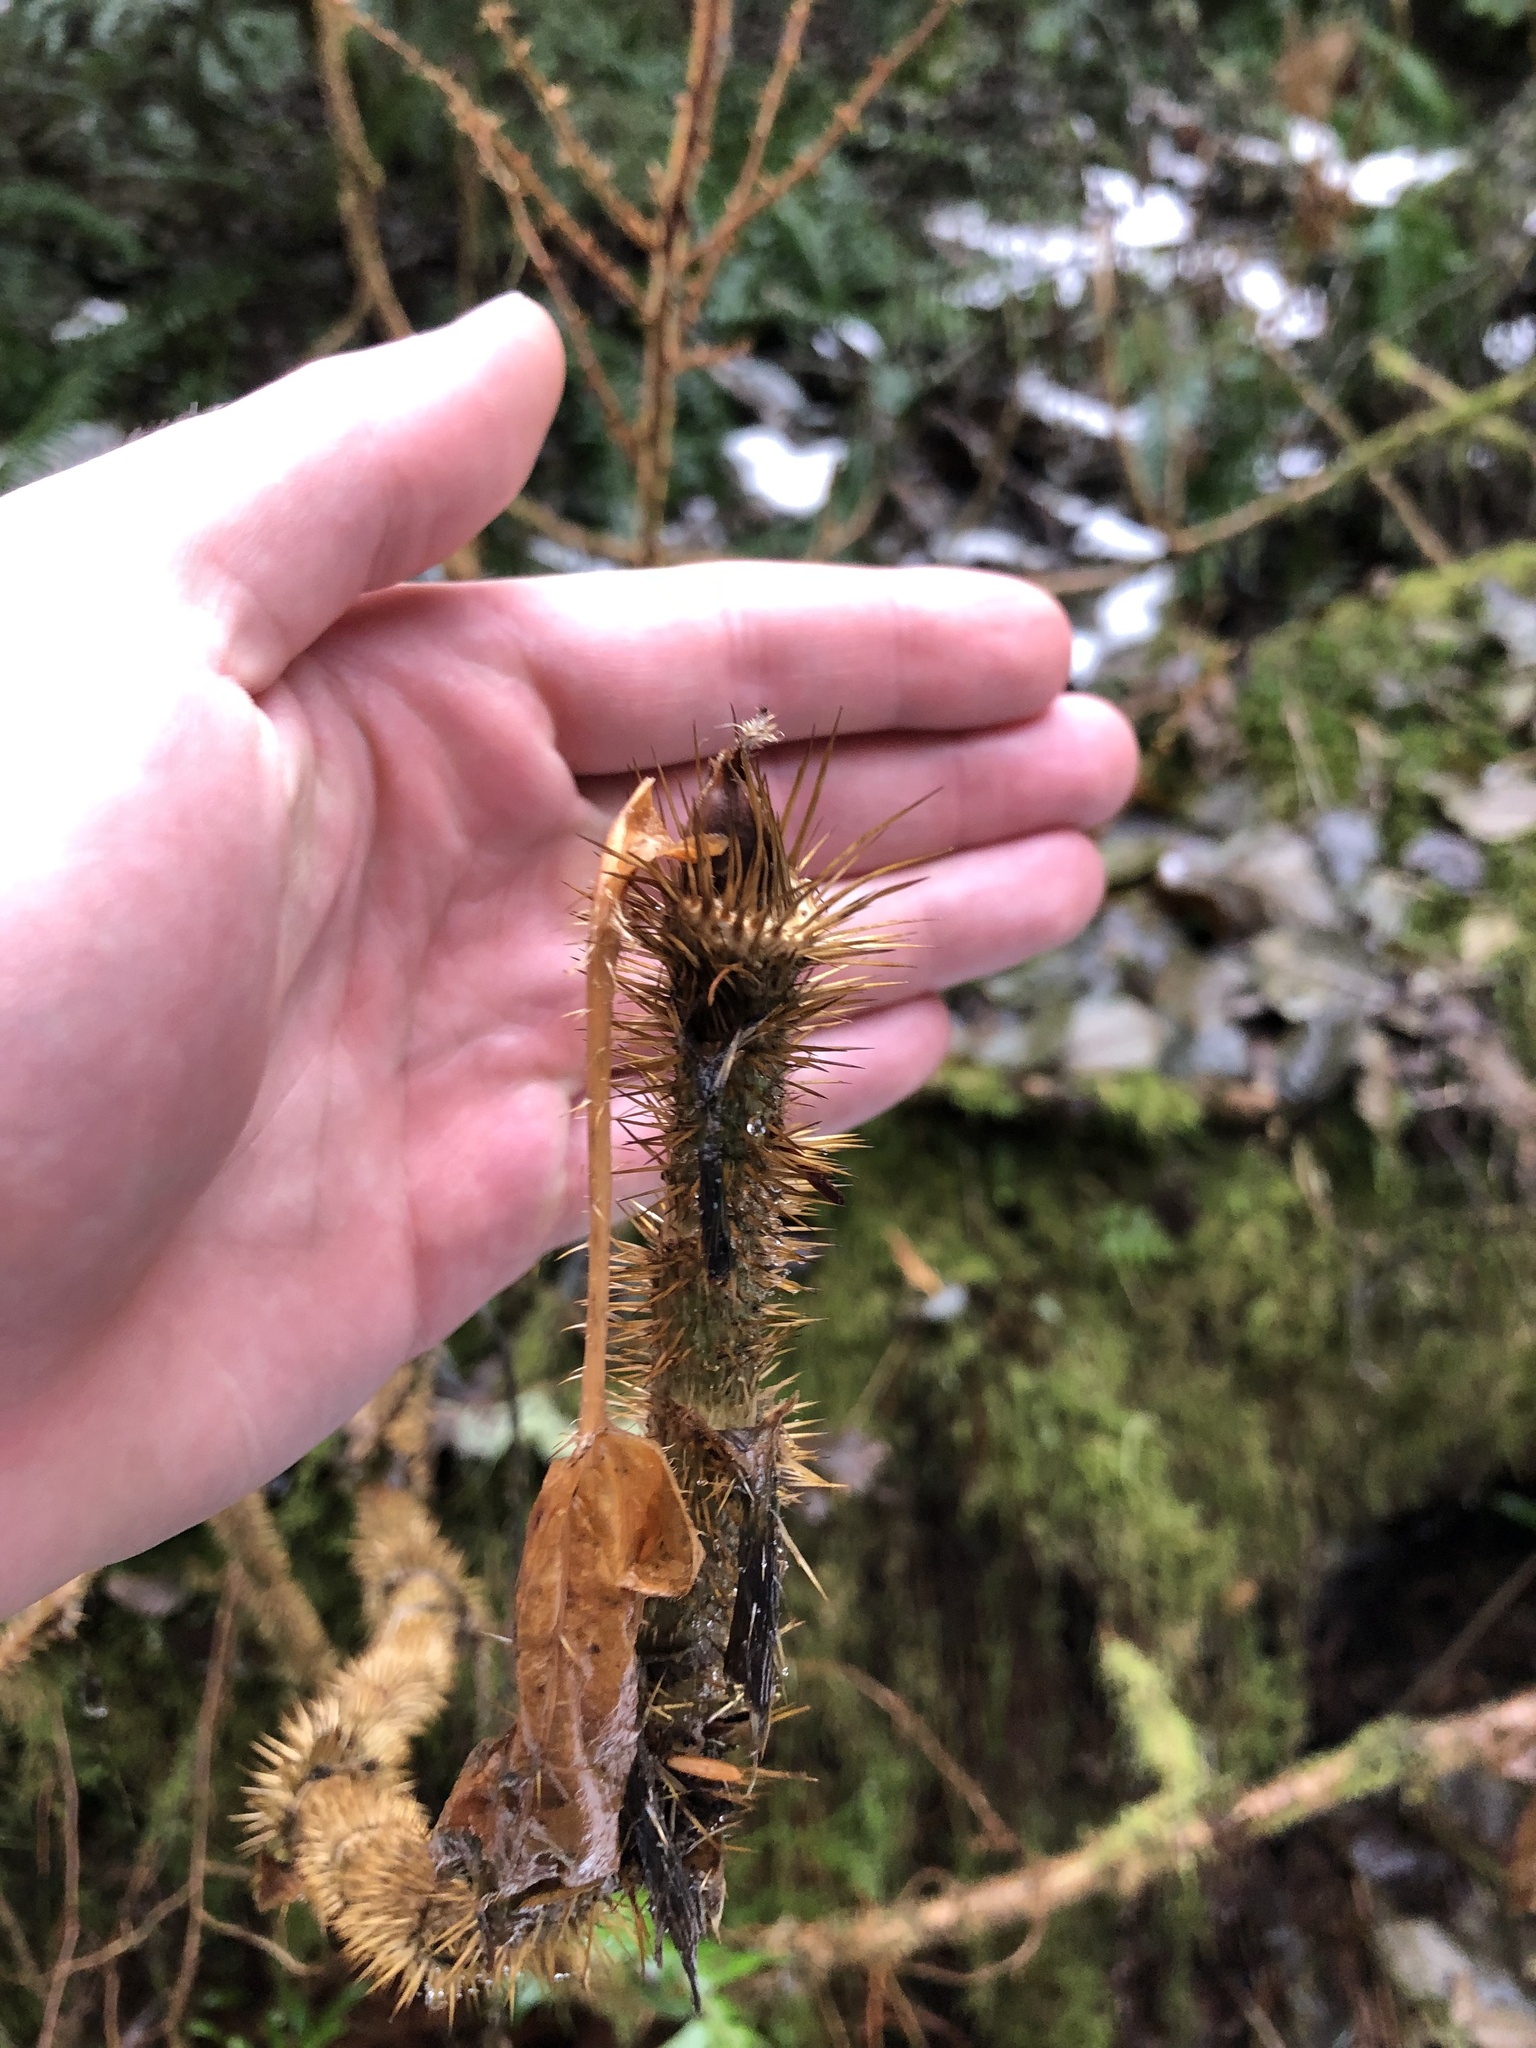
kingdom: Plantae
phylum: Tracheophyta
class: Magnoliopsida
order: Apiales
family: Araliaceae
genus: Oplopanax
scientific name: Oplopanax horridus
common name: Devil's walking-stick
